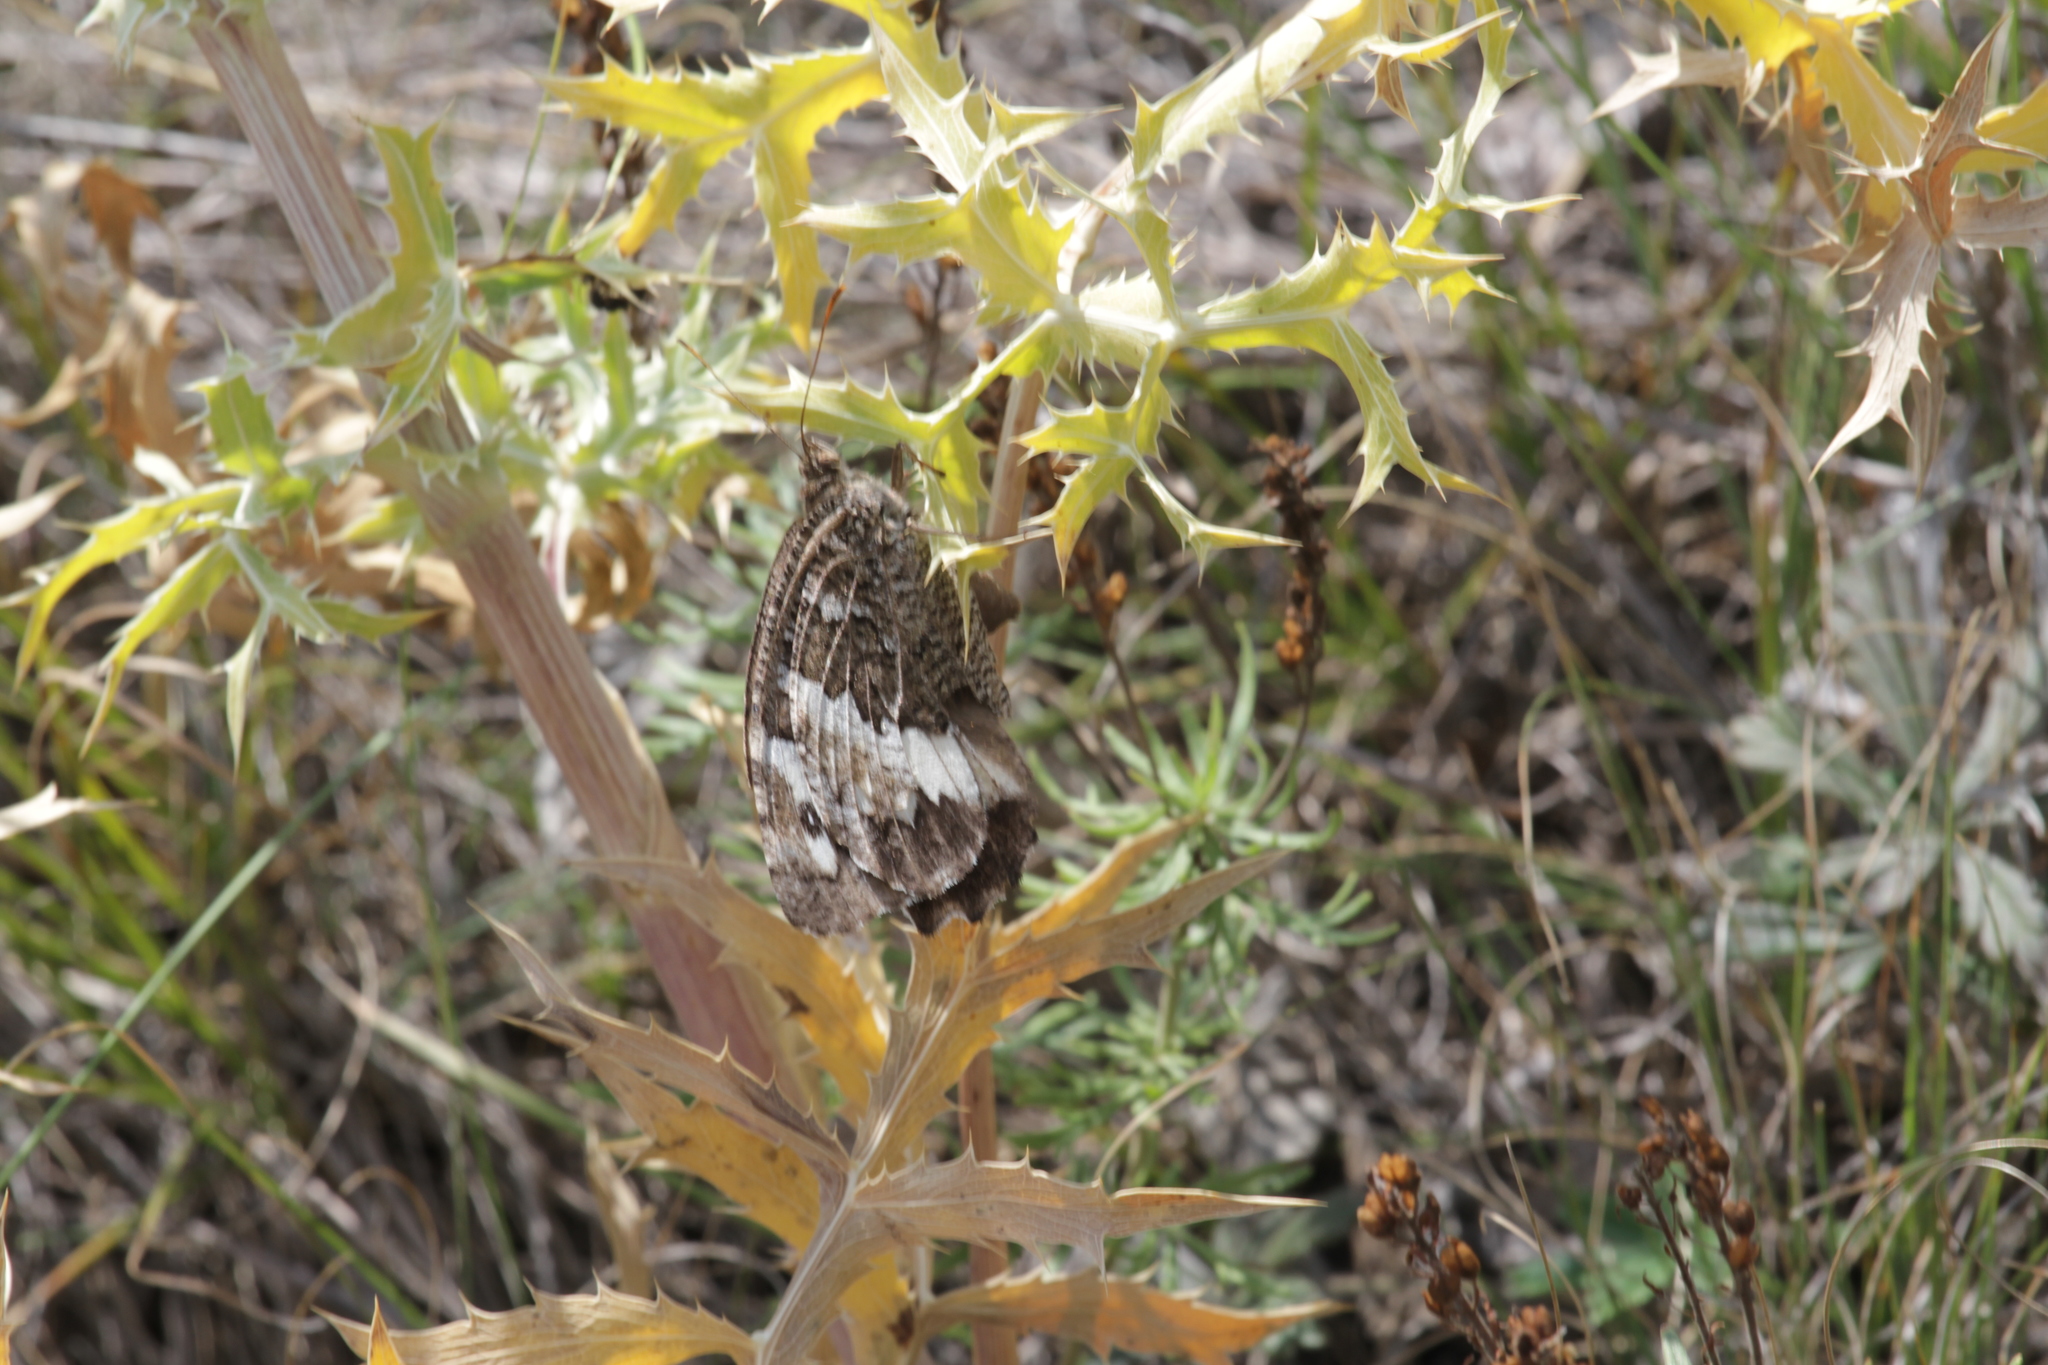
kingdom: Animalia
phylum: Arthropoda
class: Insecta
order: Lepidoptera
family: Lycaenidae
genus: Loweia
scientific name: Loweia tityrus
